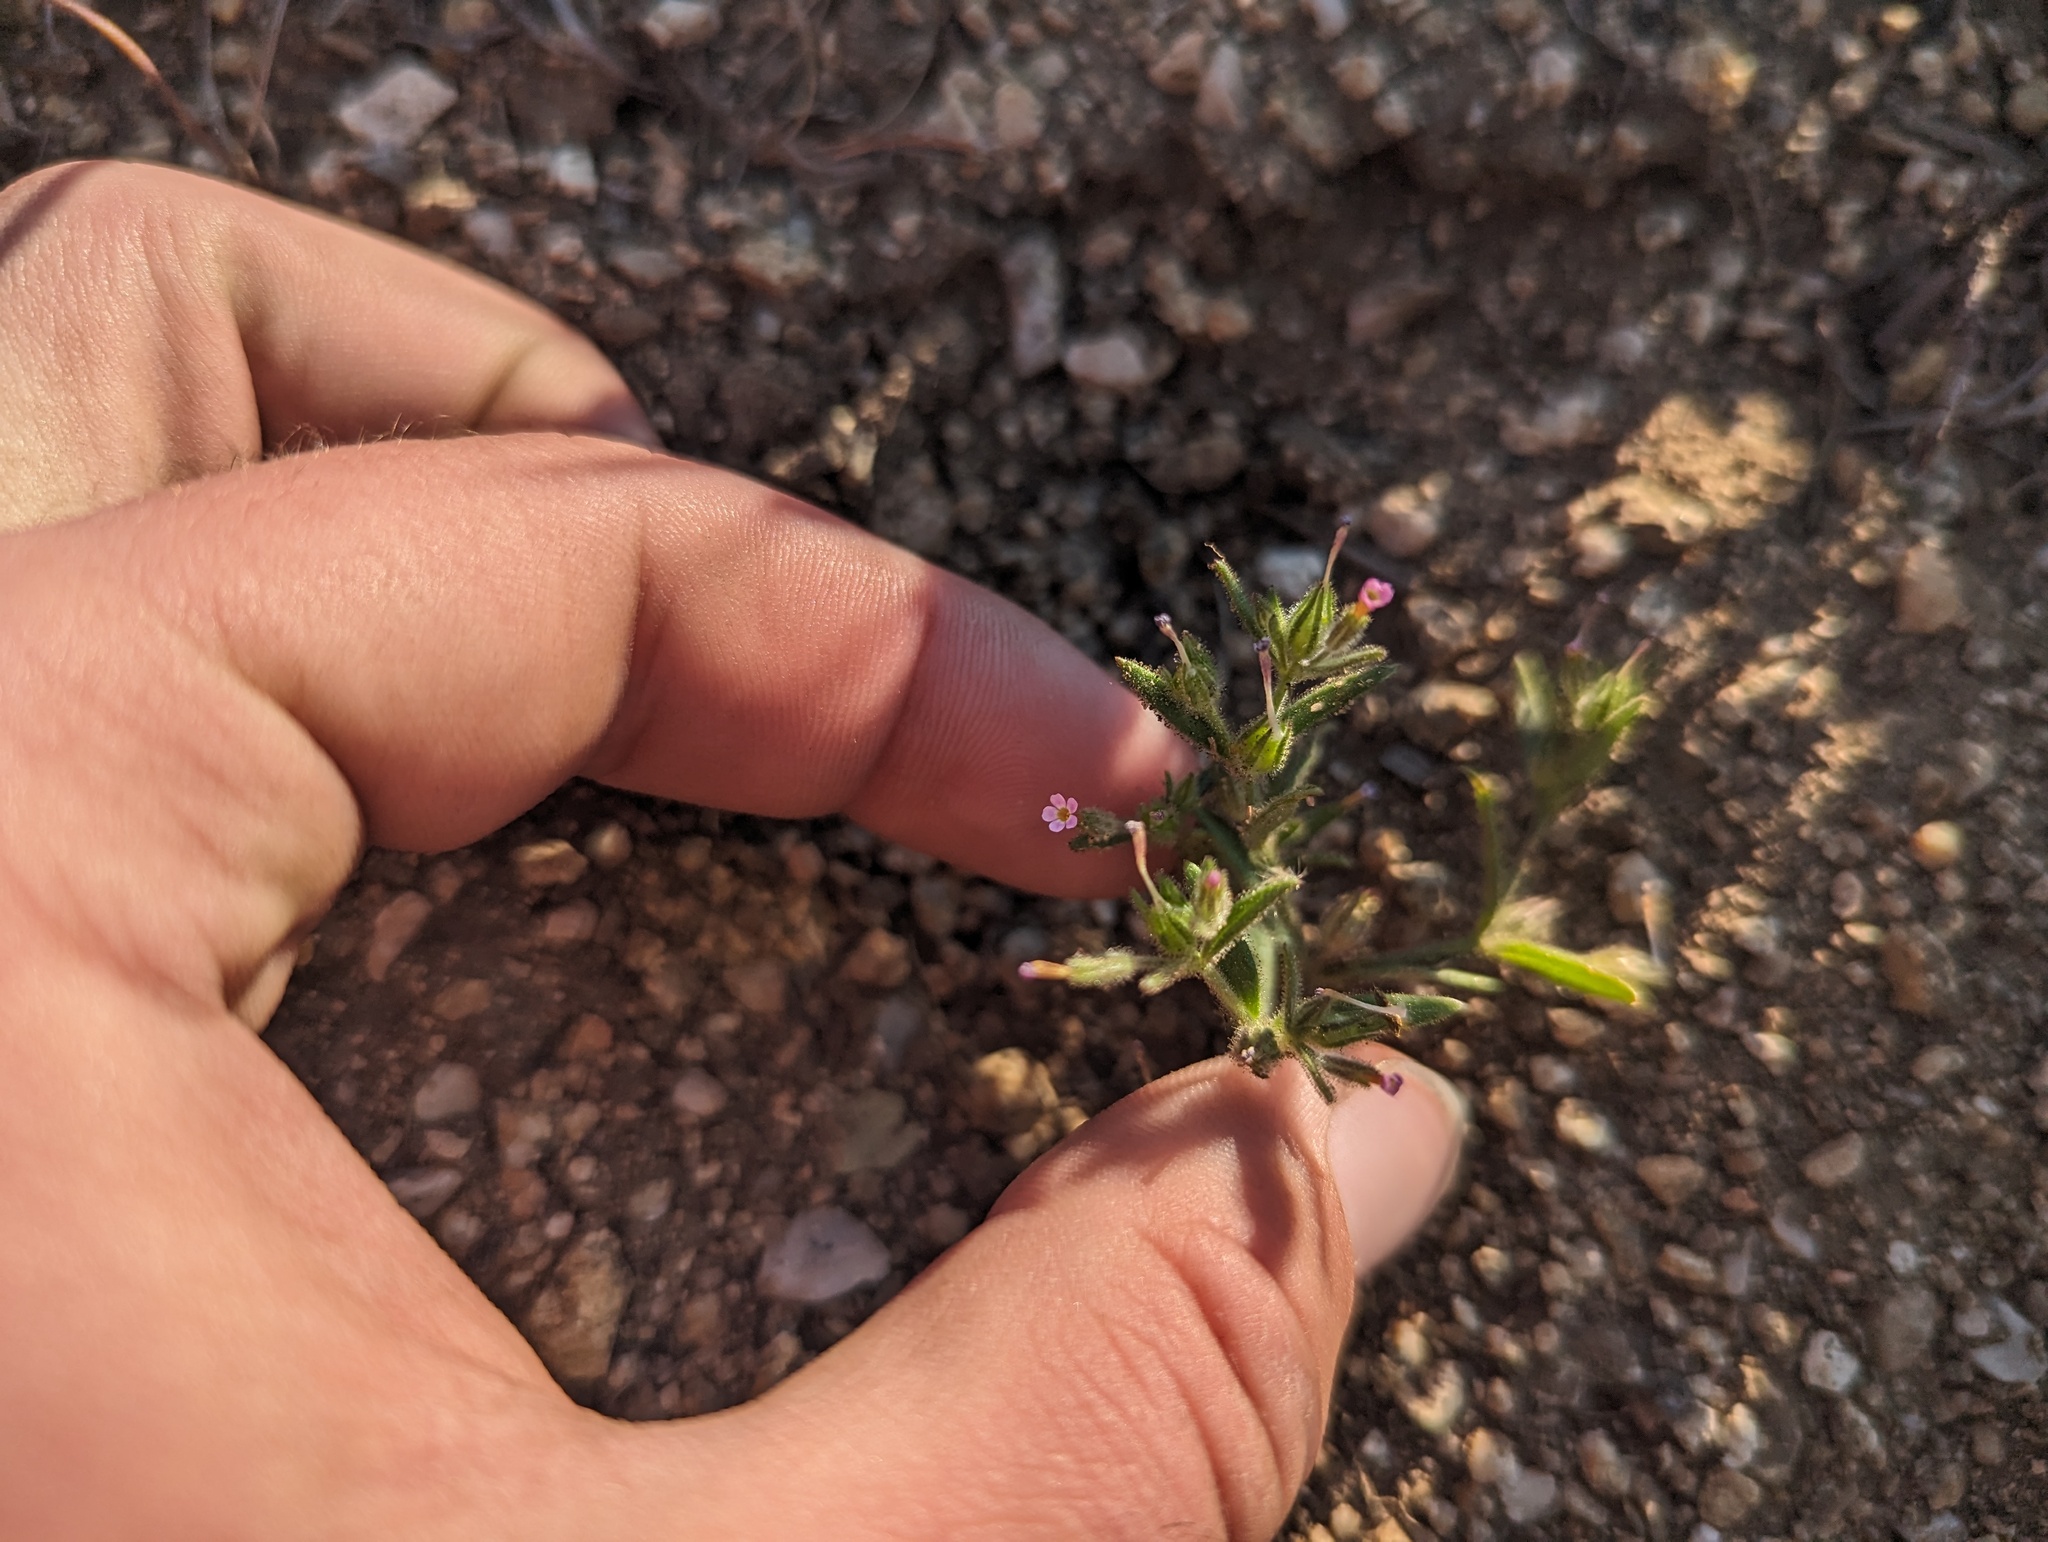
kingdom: Plantae
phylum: Tracheophyta
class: Magnoliopsida
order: Ericales
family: Polemoniaceae
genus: Phlox
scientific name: Phlox gracilis
